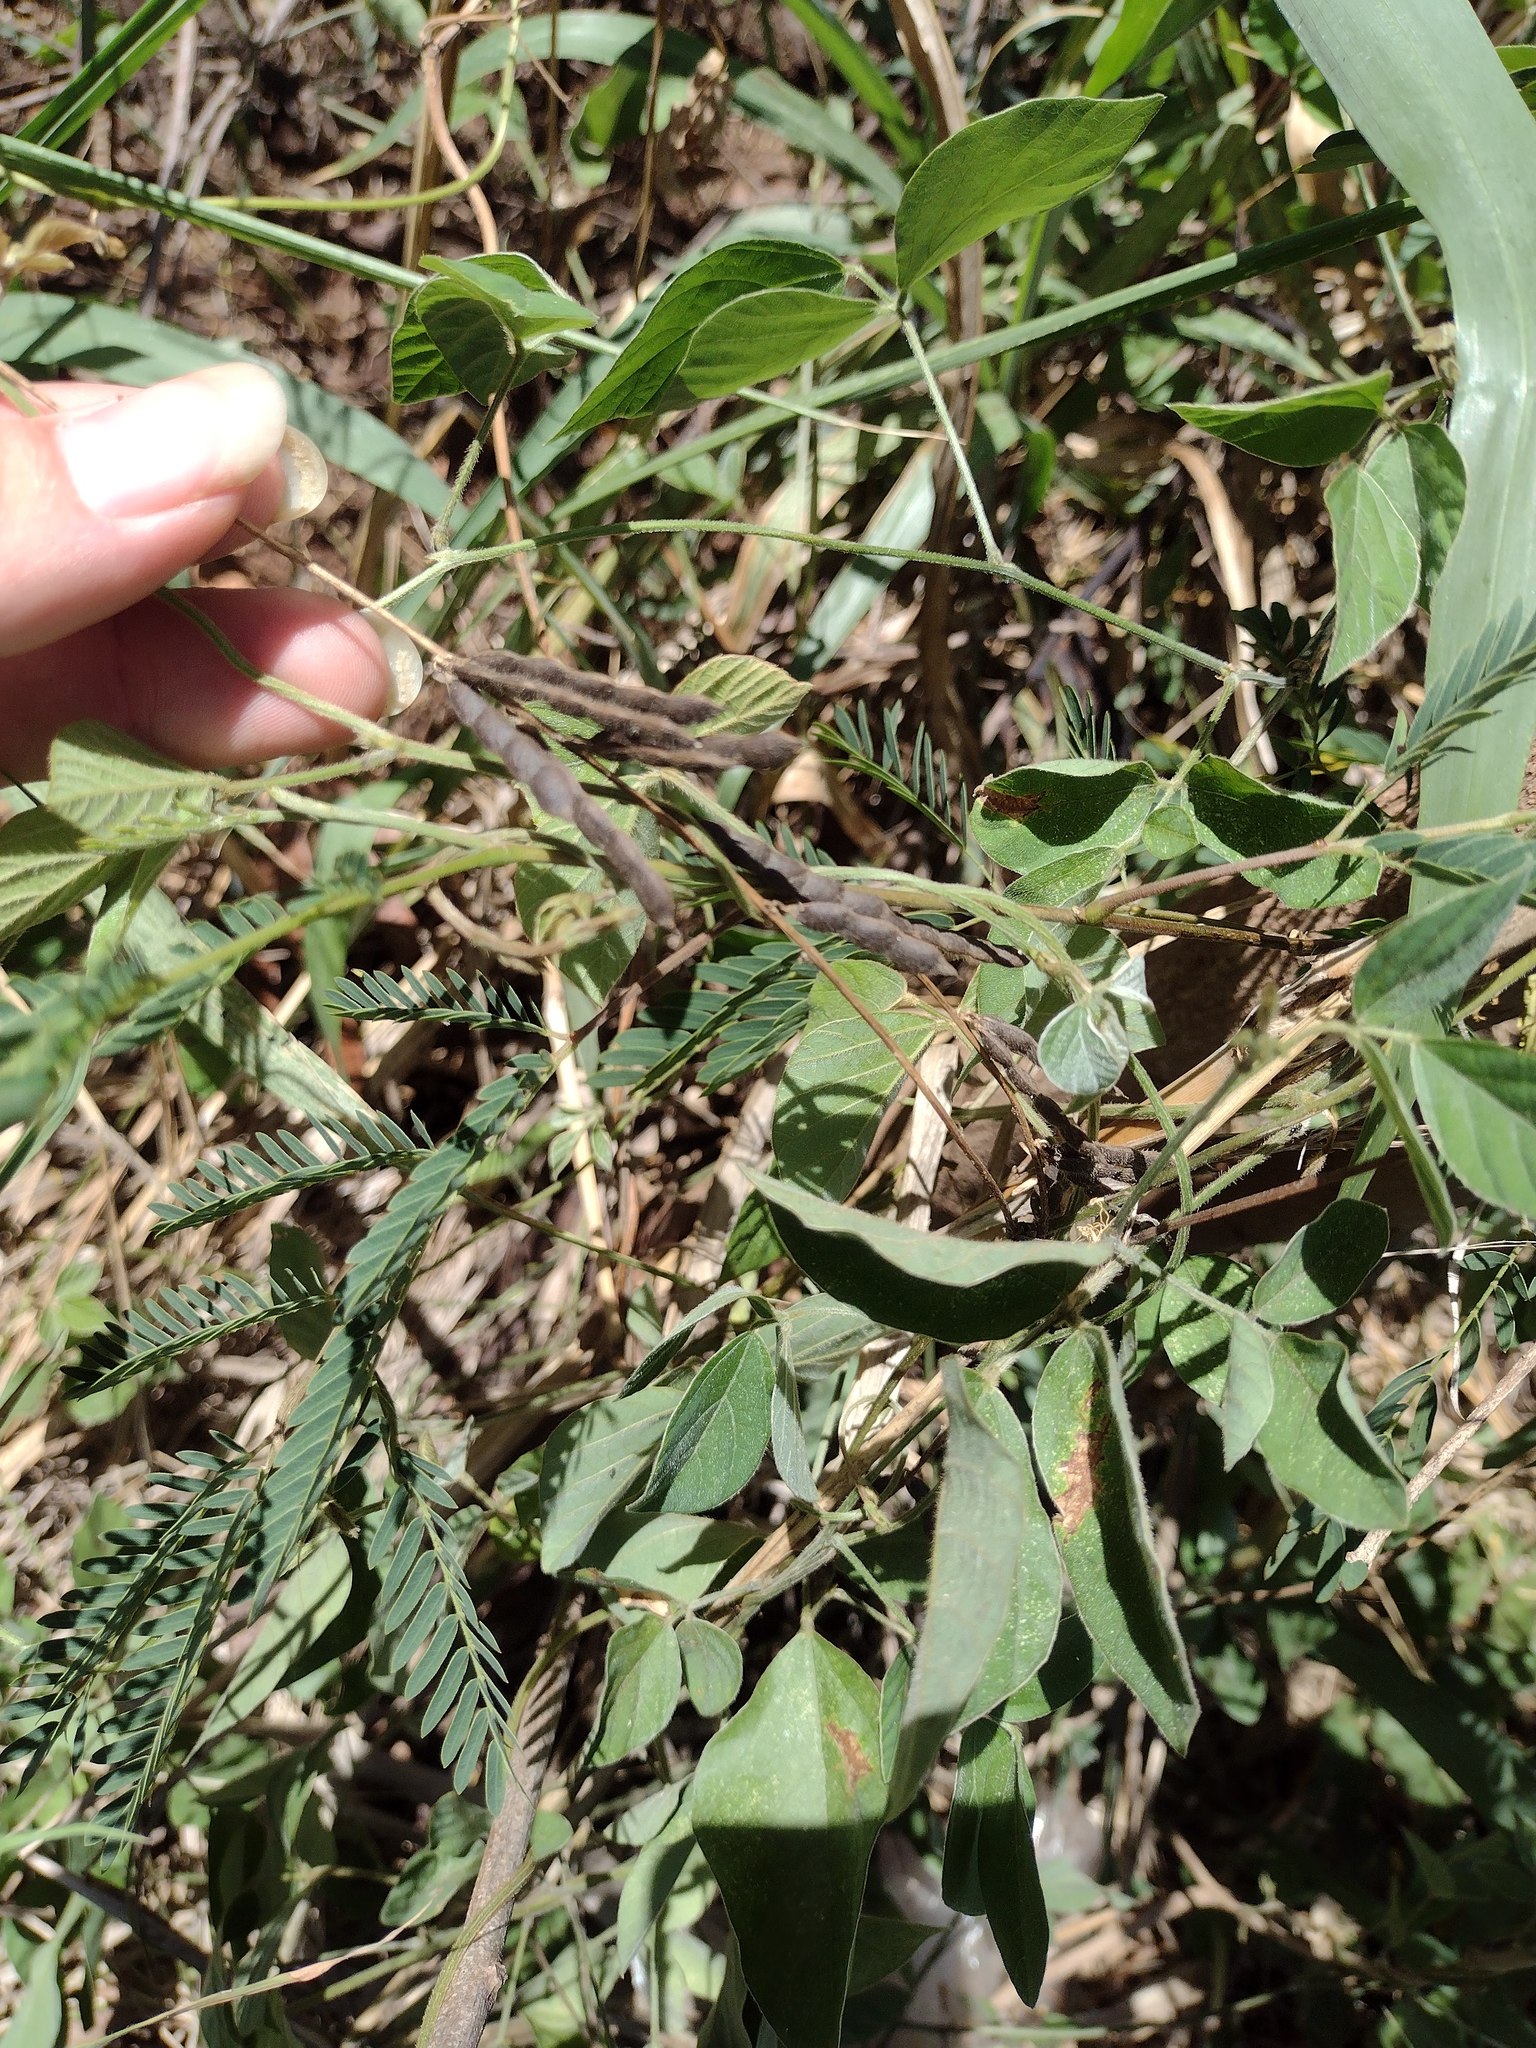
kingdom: Plantae
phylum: Tracheophyta
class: Magnoliopsida
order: Fabales
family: Fabaceae
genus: Neonotonia
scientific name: Neonotonia wightii
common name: Perennial soybean
